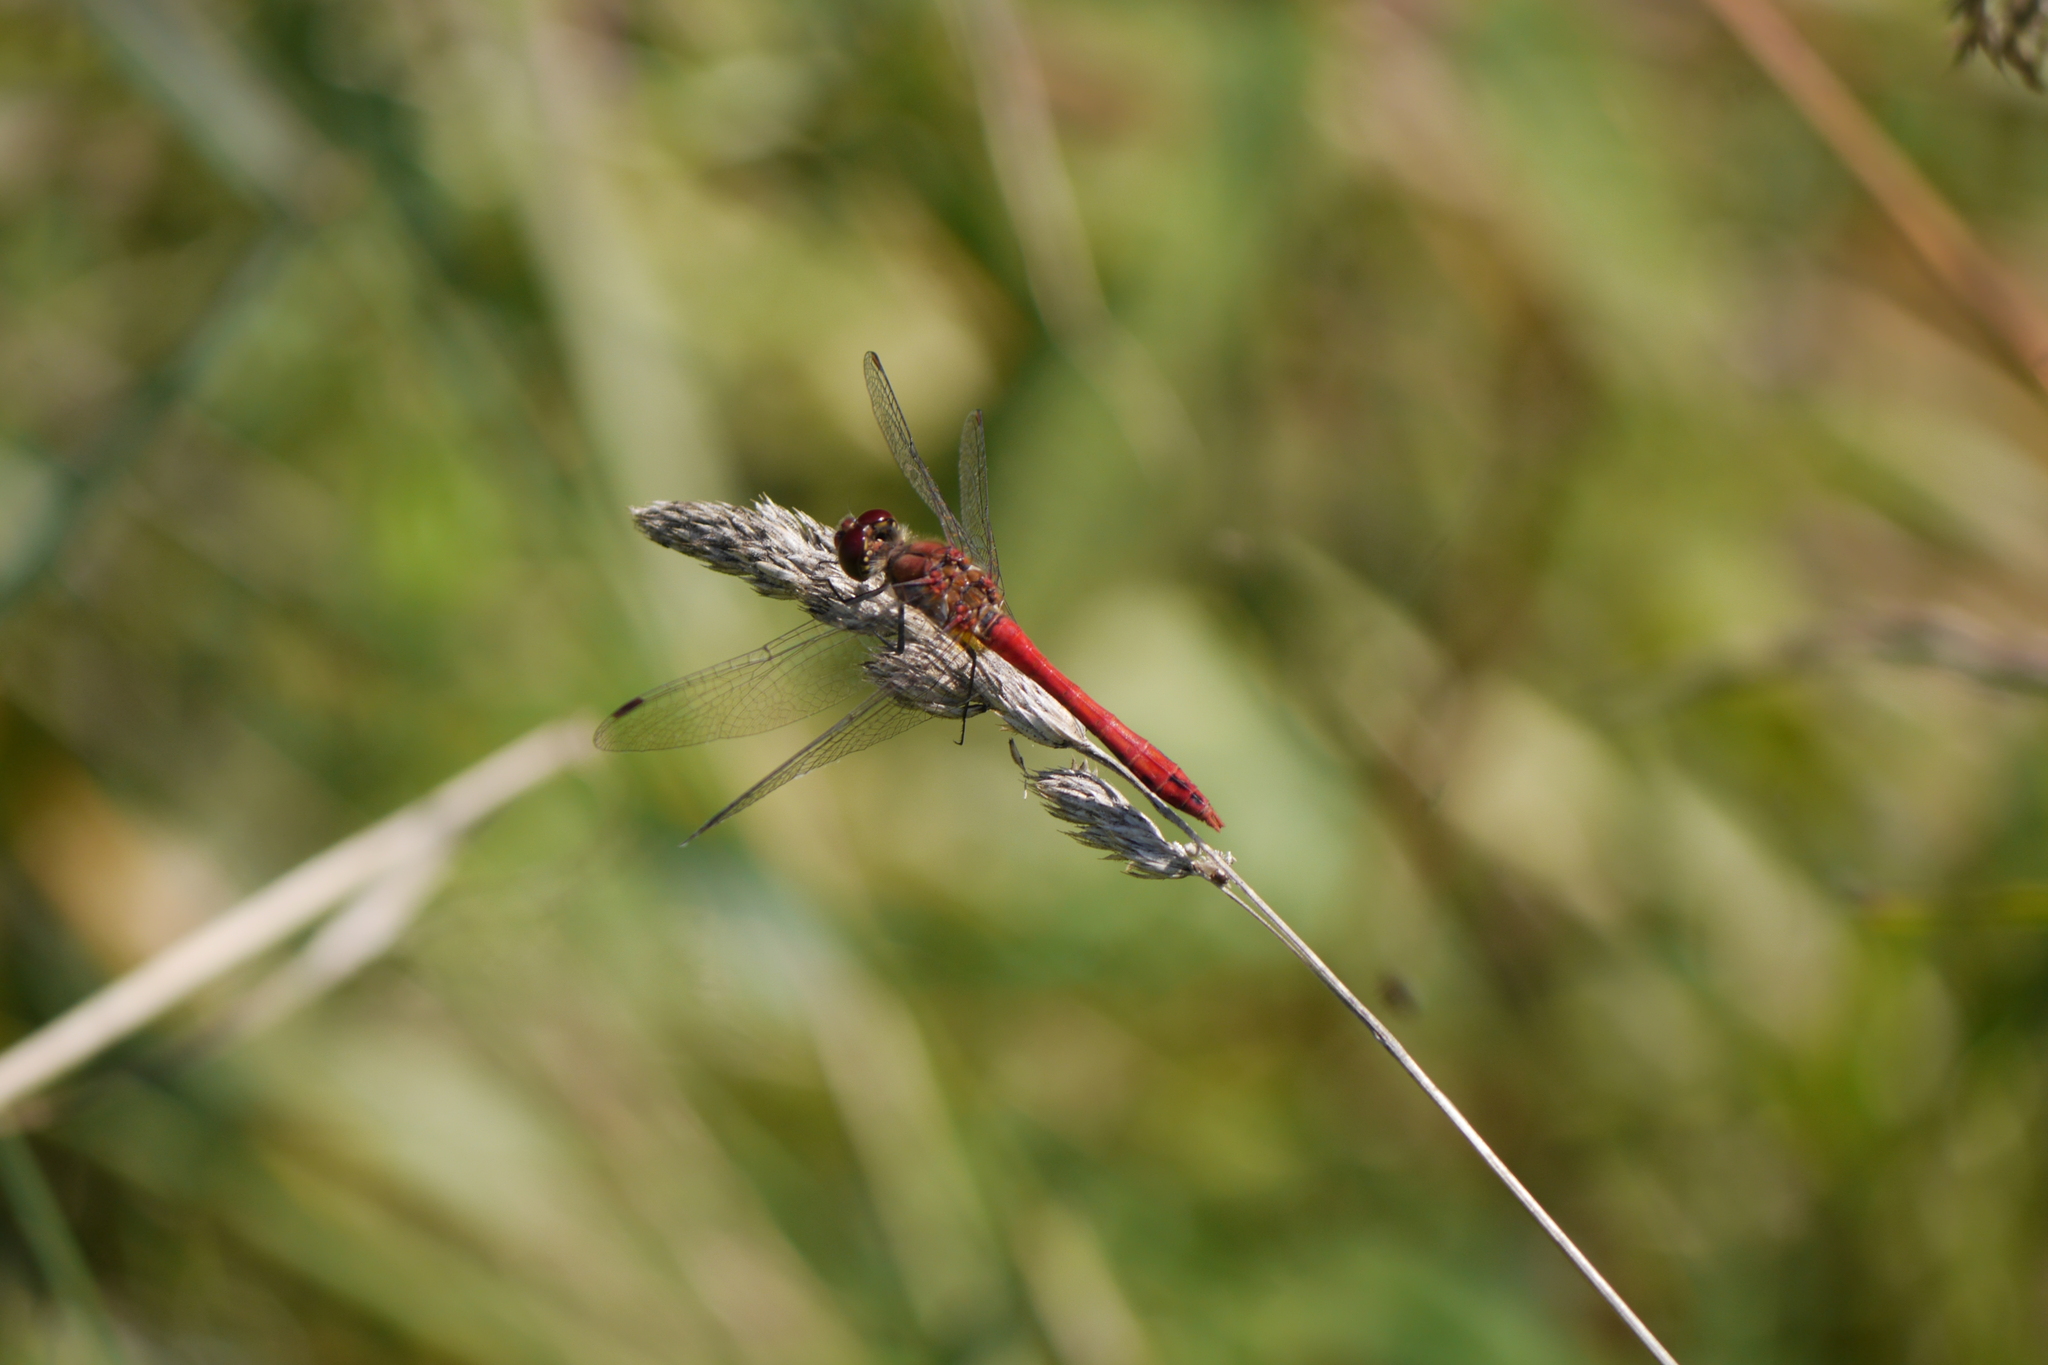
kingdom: Animalia
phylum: Arthropoda
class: Insecta
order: Odonata
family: Libellulidae
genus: Sympetrum
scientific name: Sympetrum sanguineum
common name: Ruddy darter
